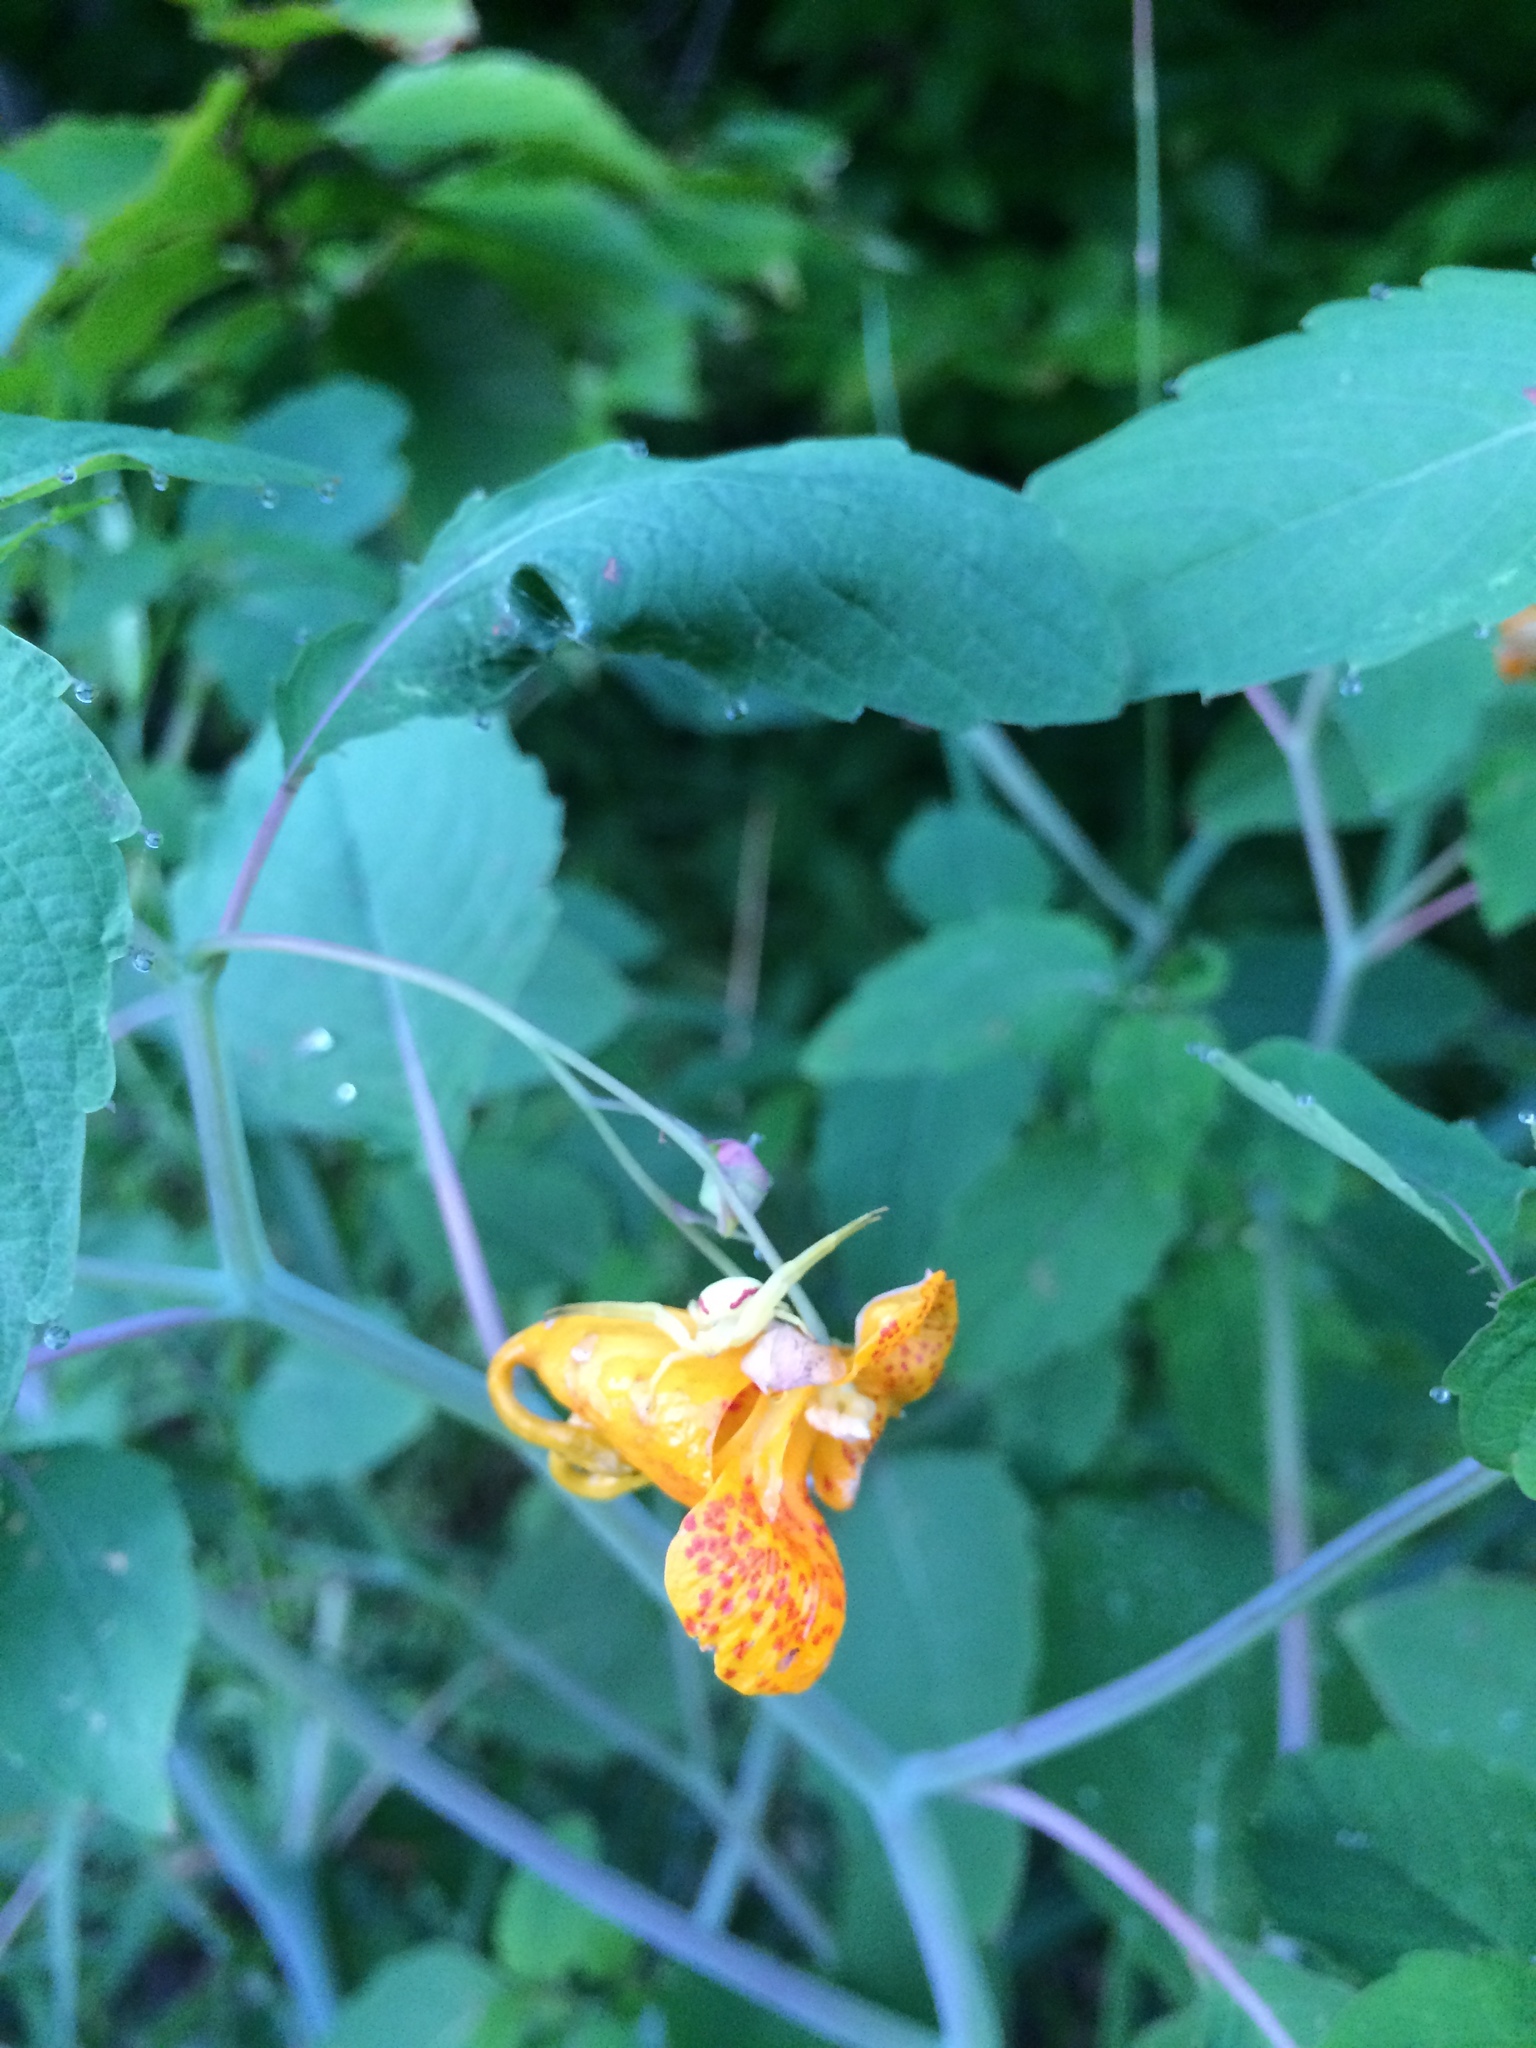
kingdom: Plantae
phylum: Tracheophyta
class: Magnoliopsida
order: Ericales
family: Balsaminaceae
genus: Impatiens
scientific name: Impatiens capensis
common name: Orange balsam
